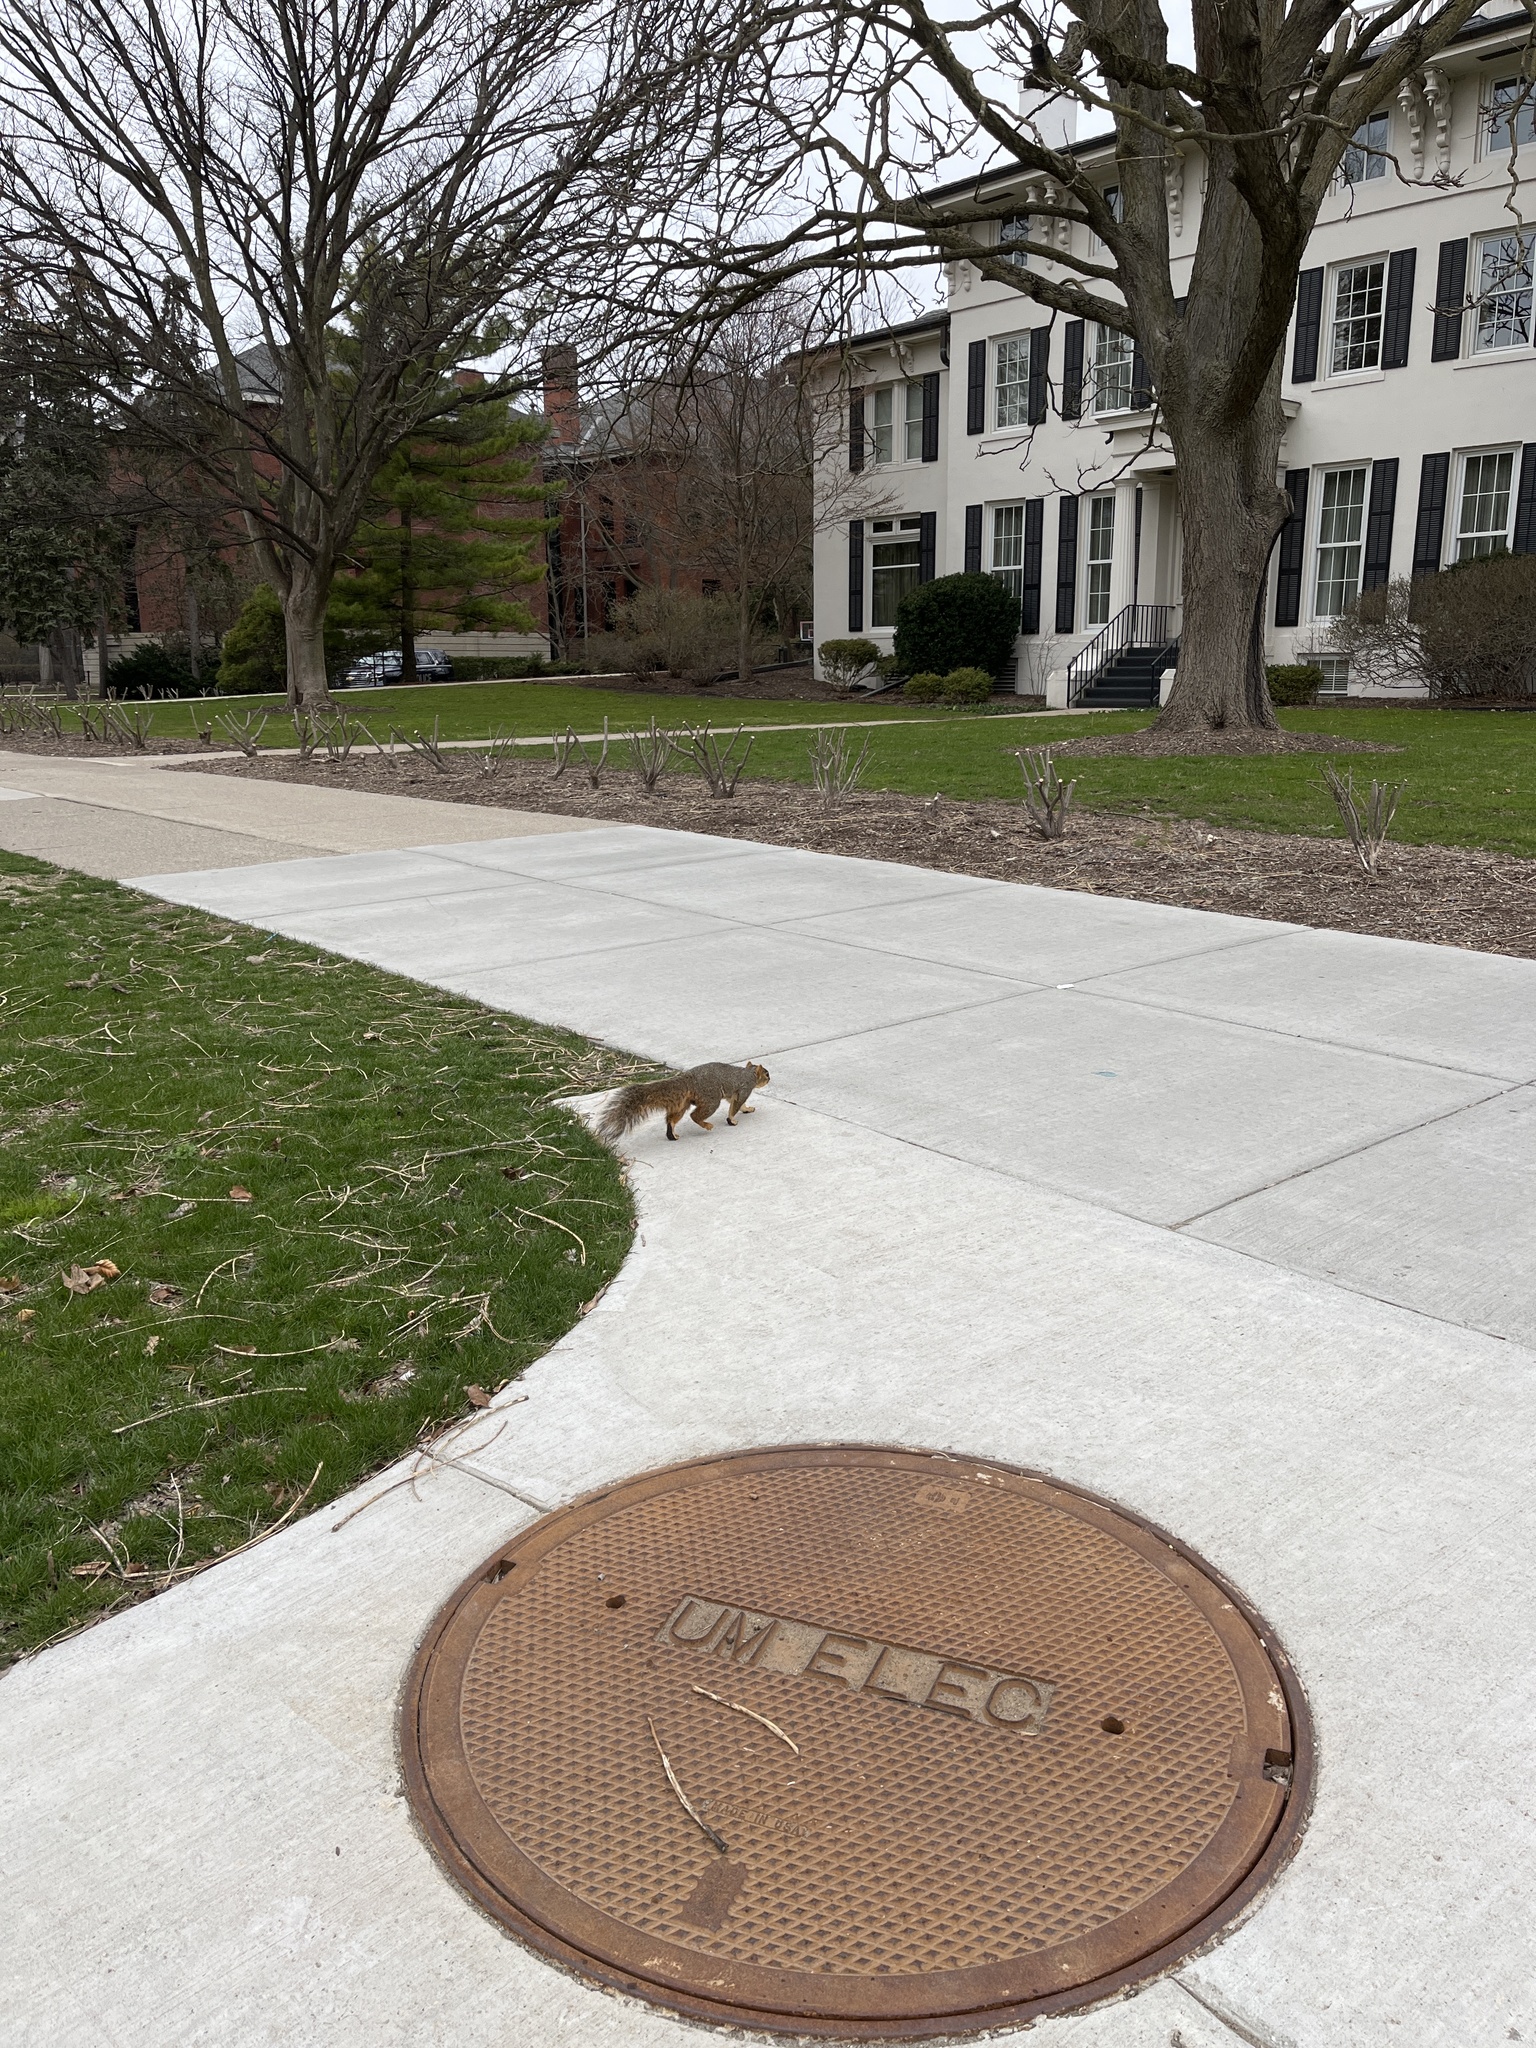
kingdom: Animalia
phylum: Chordata
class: Mammalia
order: Rodentia
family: Sciuridae
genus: Sciurus
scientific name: Sciurus niger
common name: Fox squirrel
